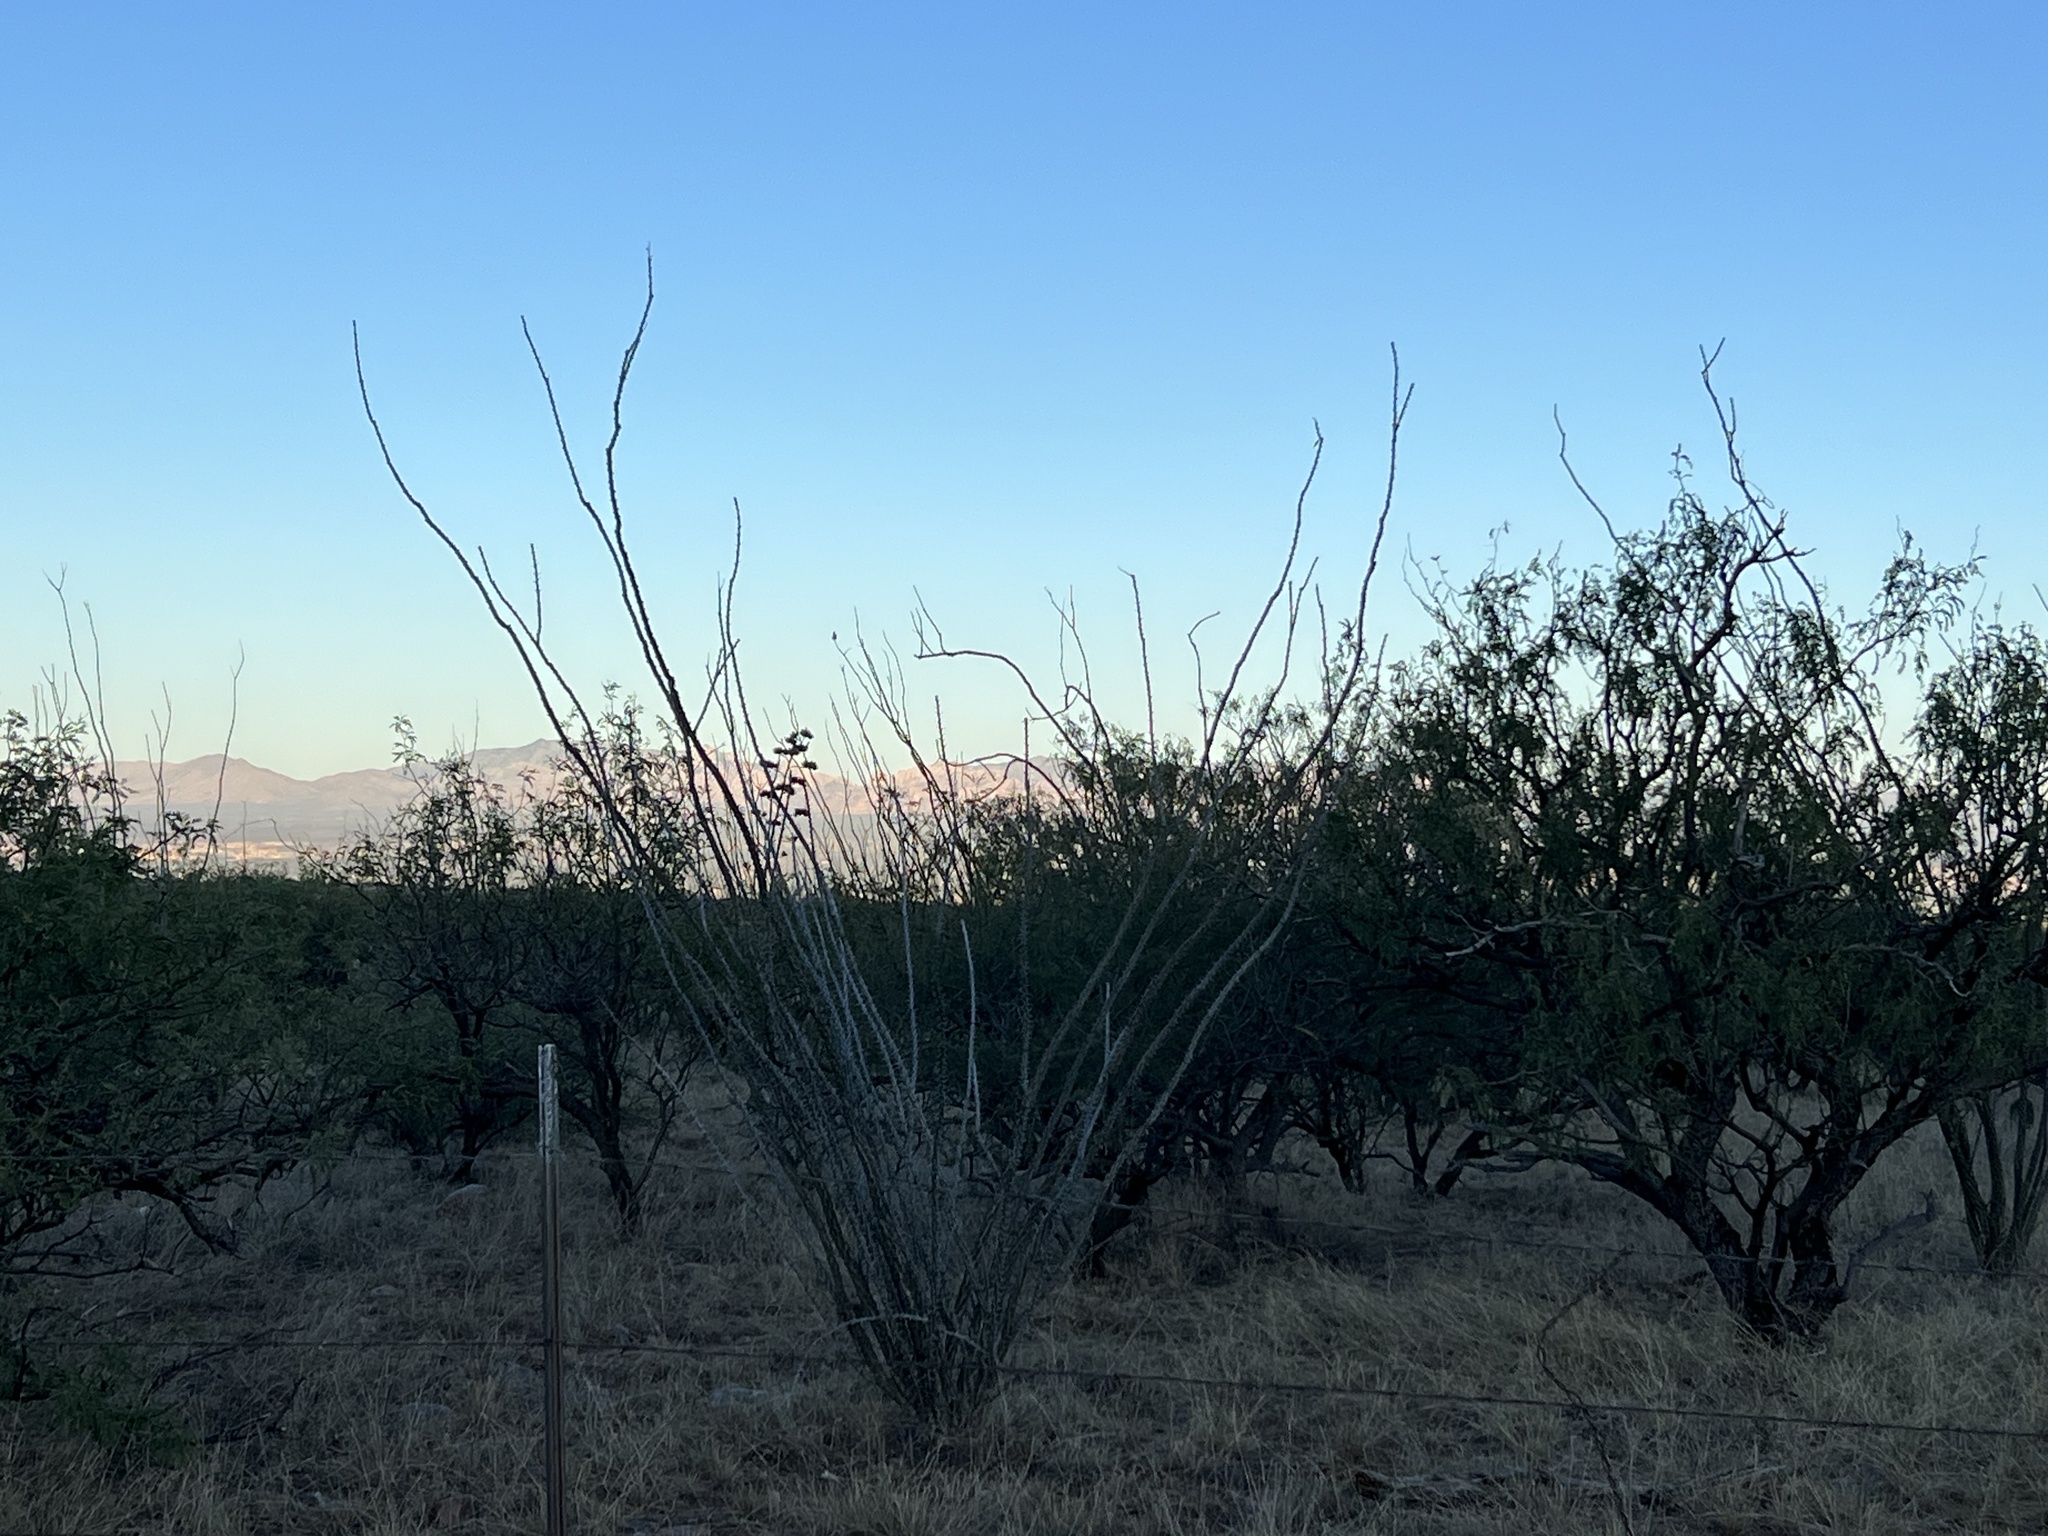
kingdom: Plantae
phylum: Tracheophyta
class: Magnoliopsida
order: Ericales
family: Fouquieriaceae
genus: Fouquieria
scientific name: Fouquieria splendens
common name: Vine-cactus
